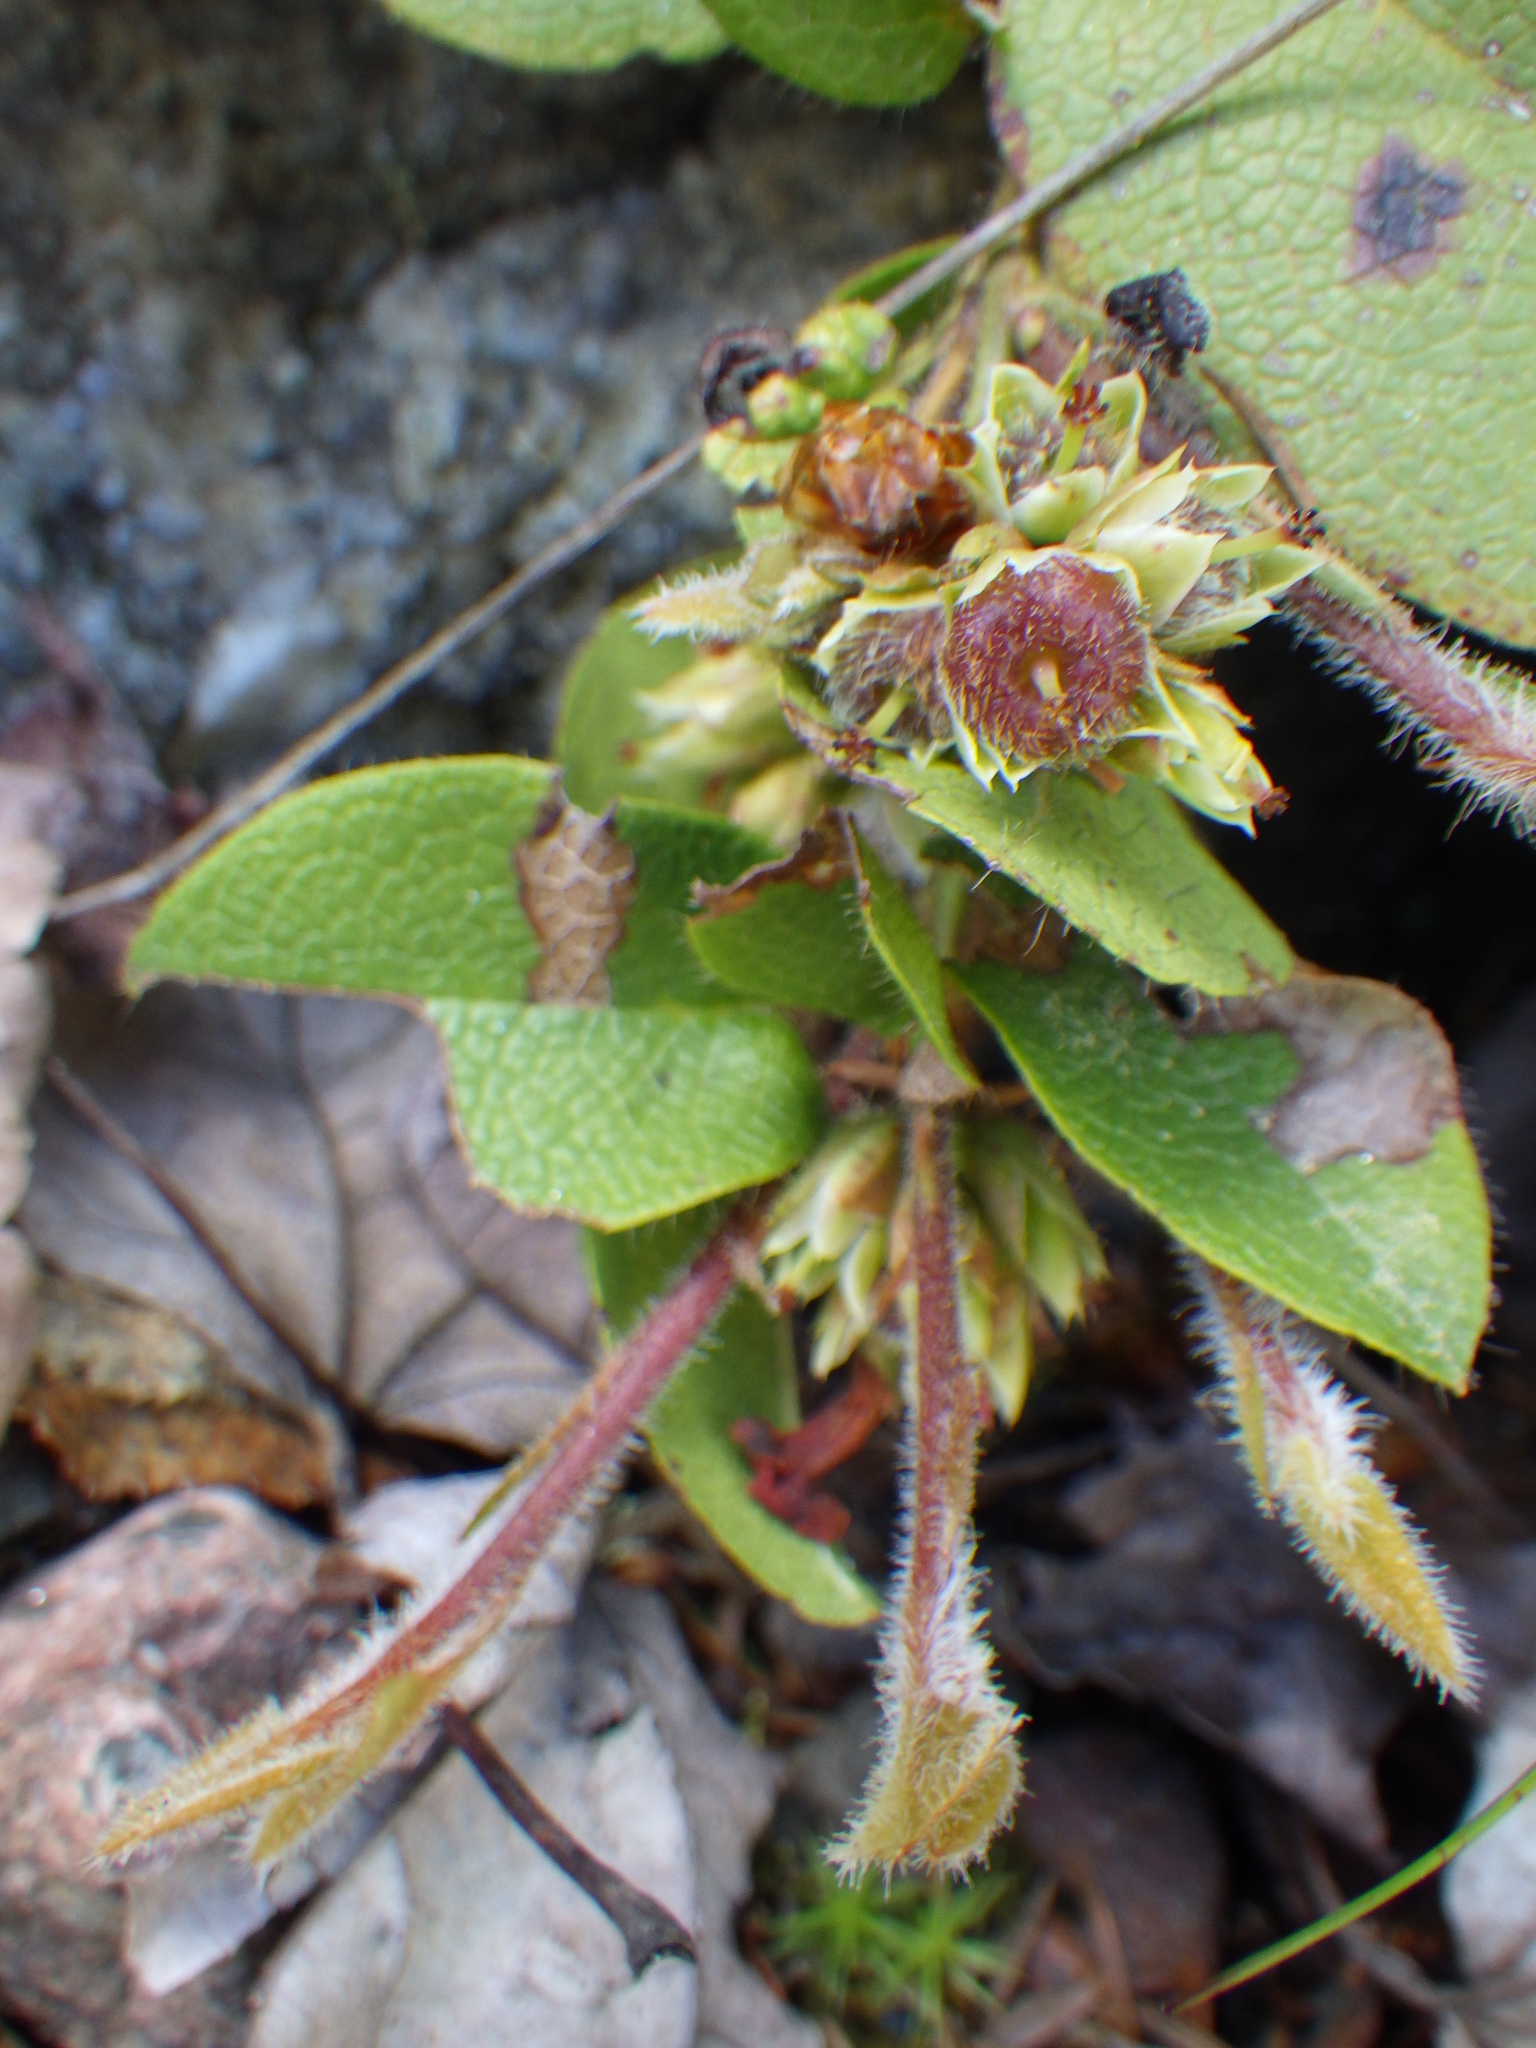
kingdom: Plantae
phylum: Tracheophyta
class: Magnoliopsida
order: Ericales
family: Ericaceae
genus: Epigaea
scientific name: Epigaea repens
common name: Gravelroot
